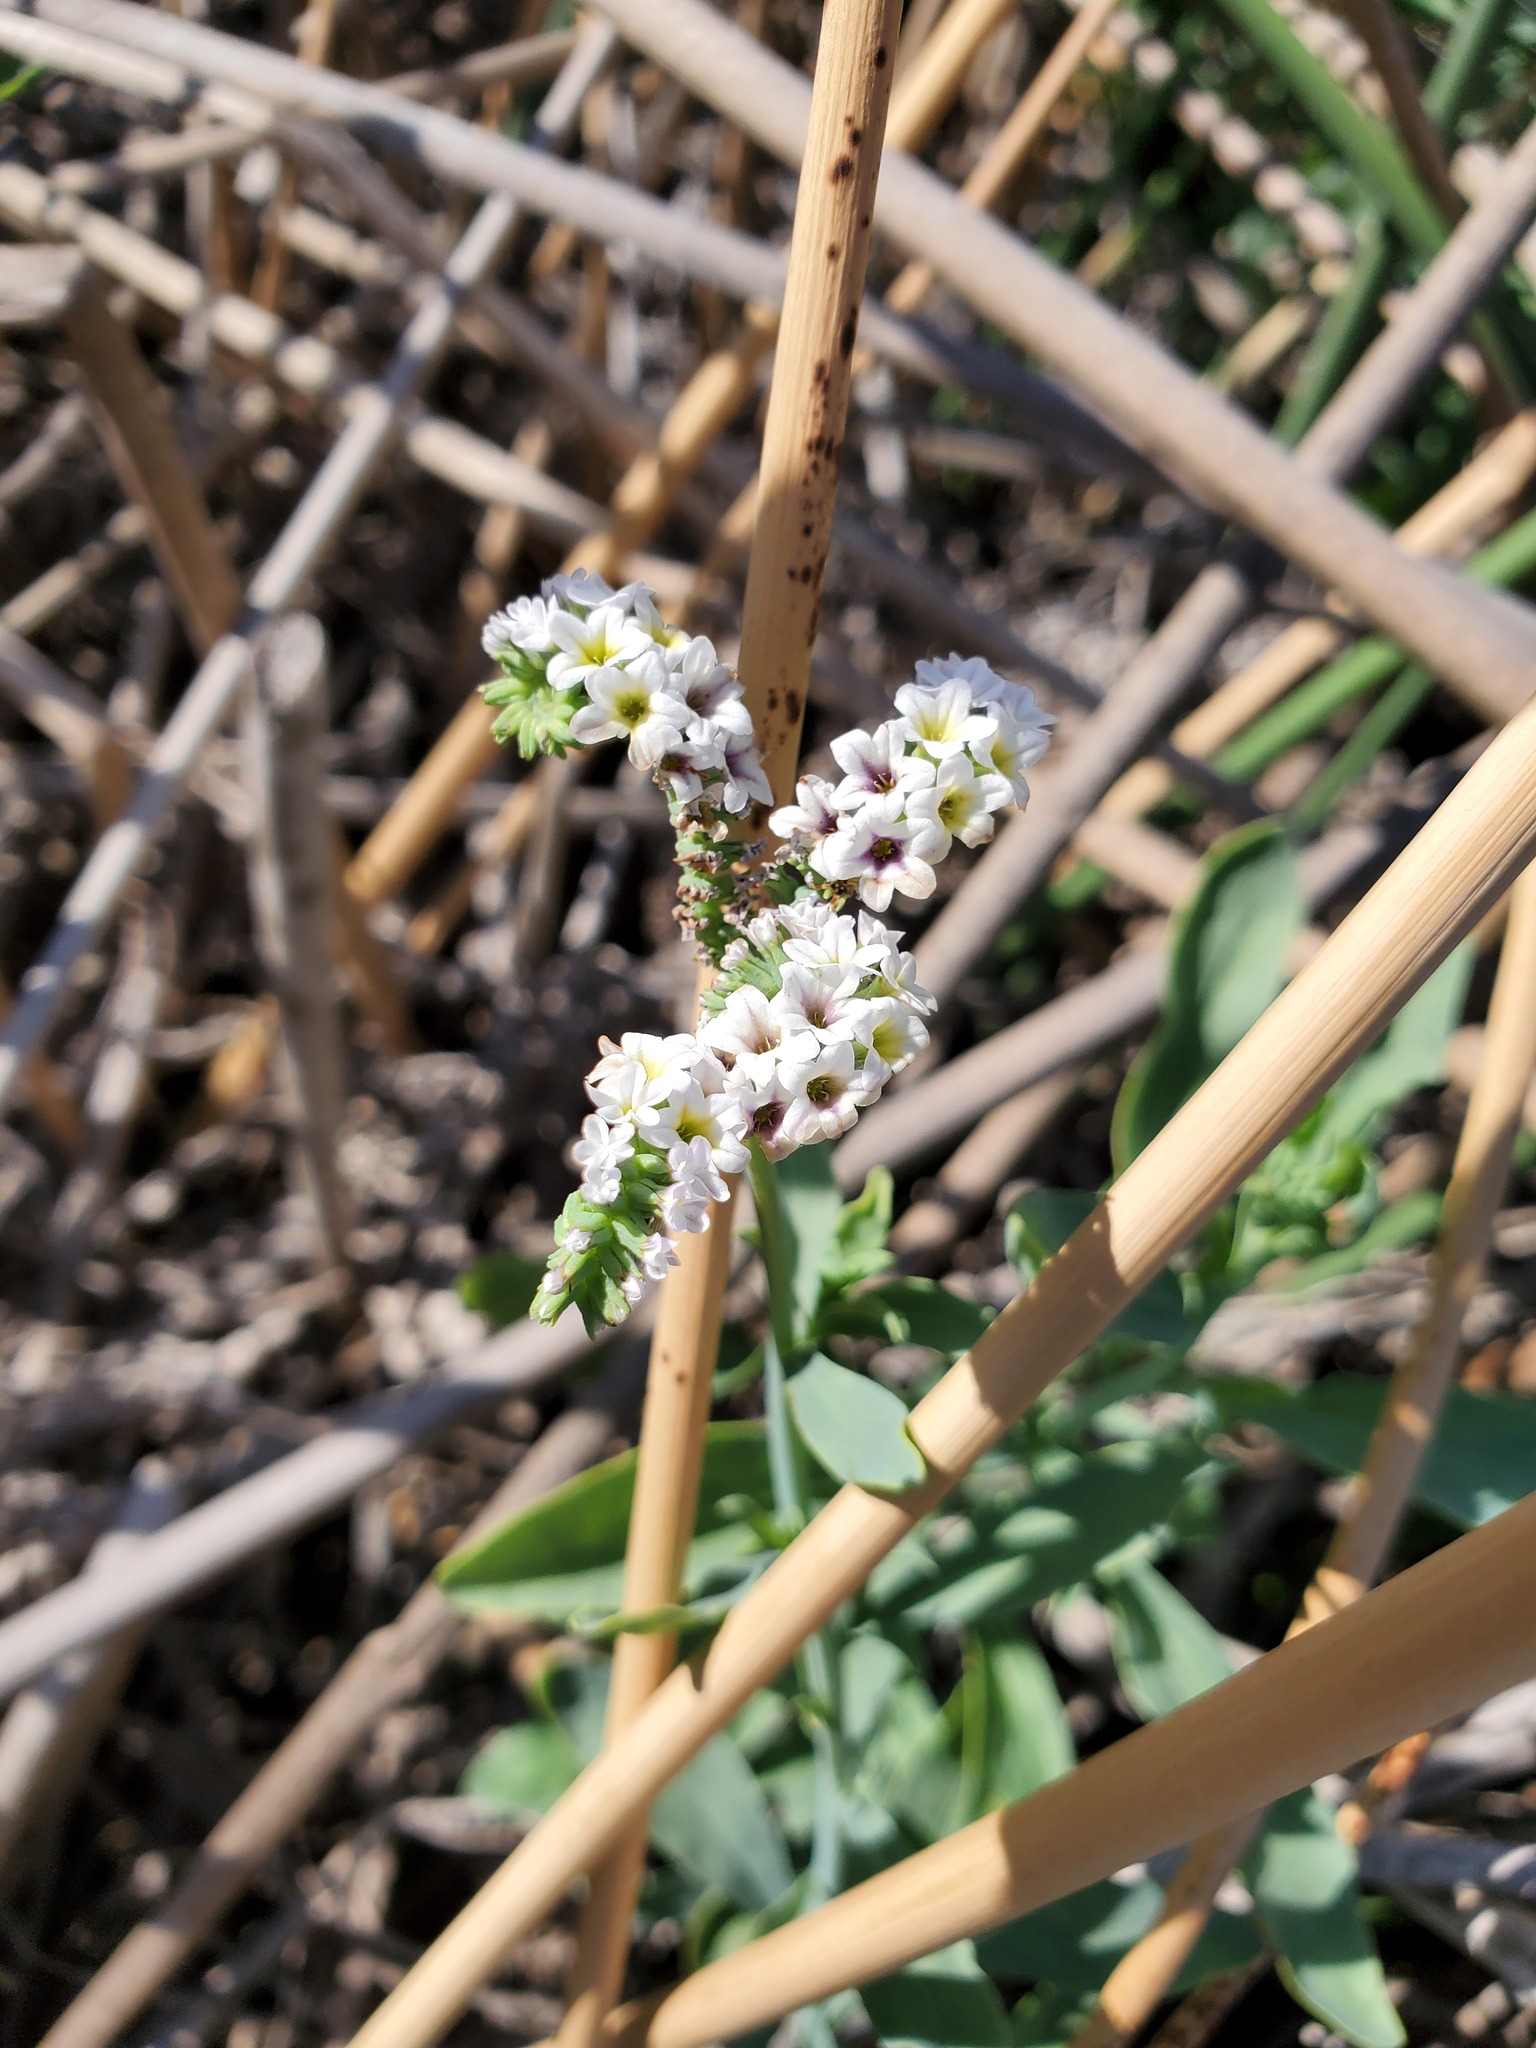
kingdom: Plantae
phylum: Tracheophyta
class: Magnoliopsida
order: Boraginales
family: Heliotropiaceae
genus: Heliotropium
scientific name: Heliotropium curassavicum
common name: Seaside heliotrope
